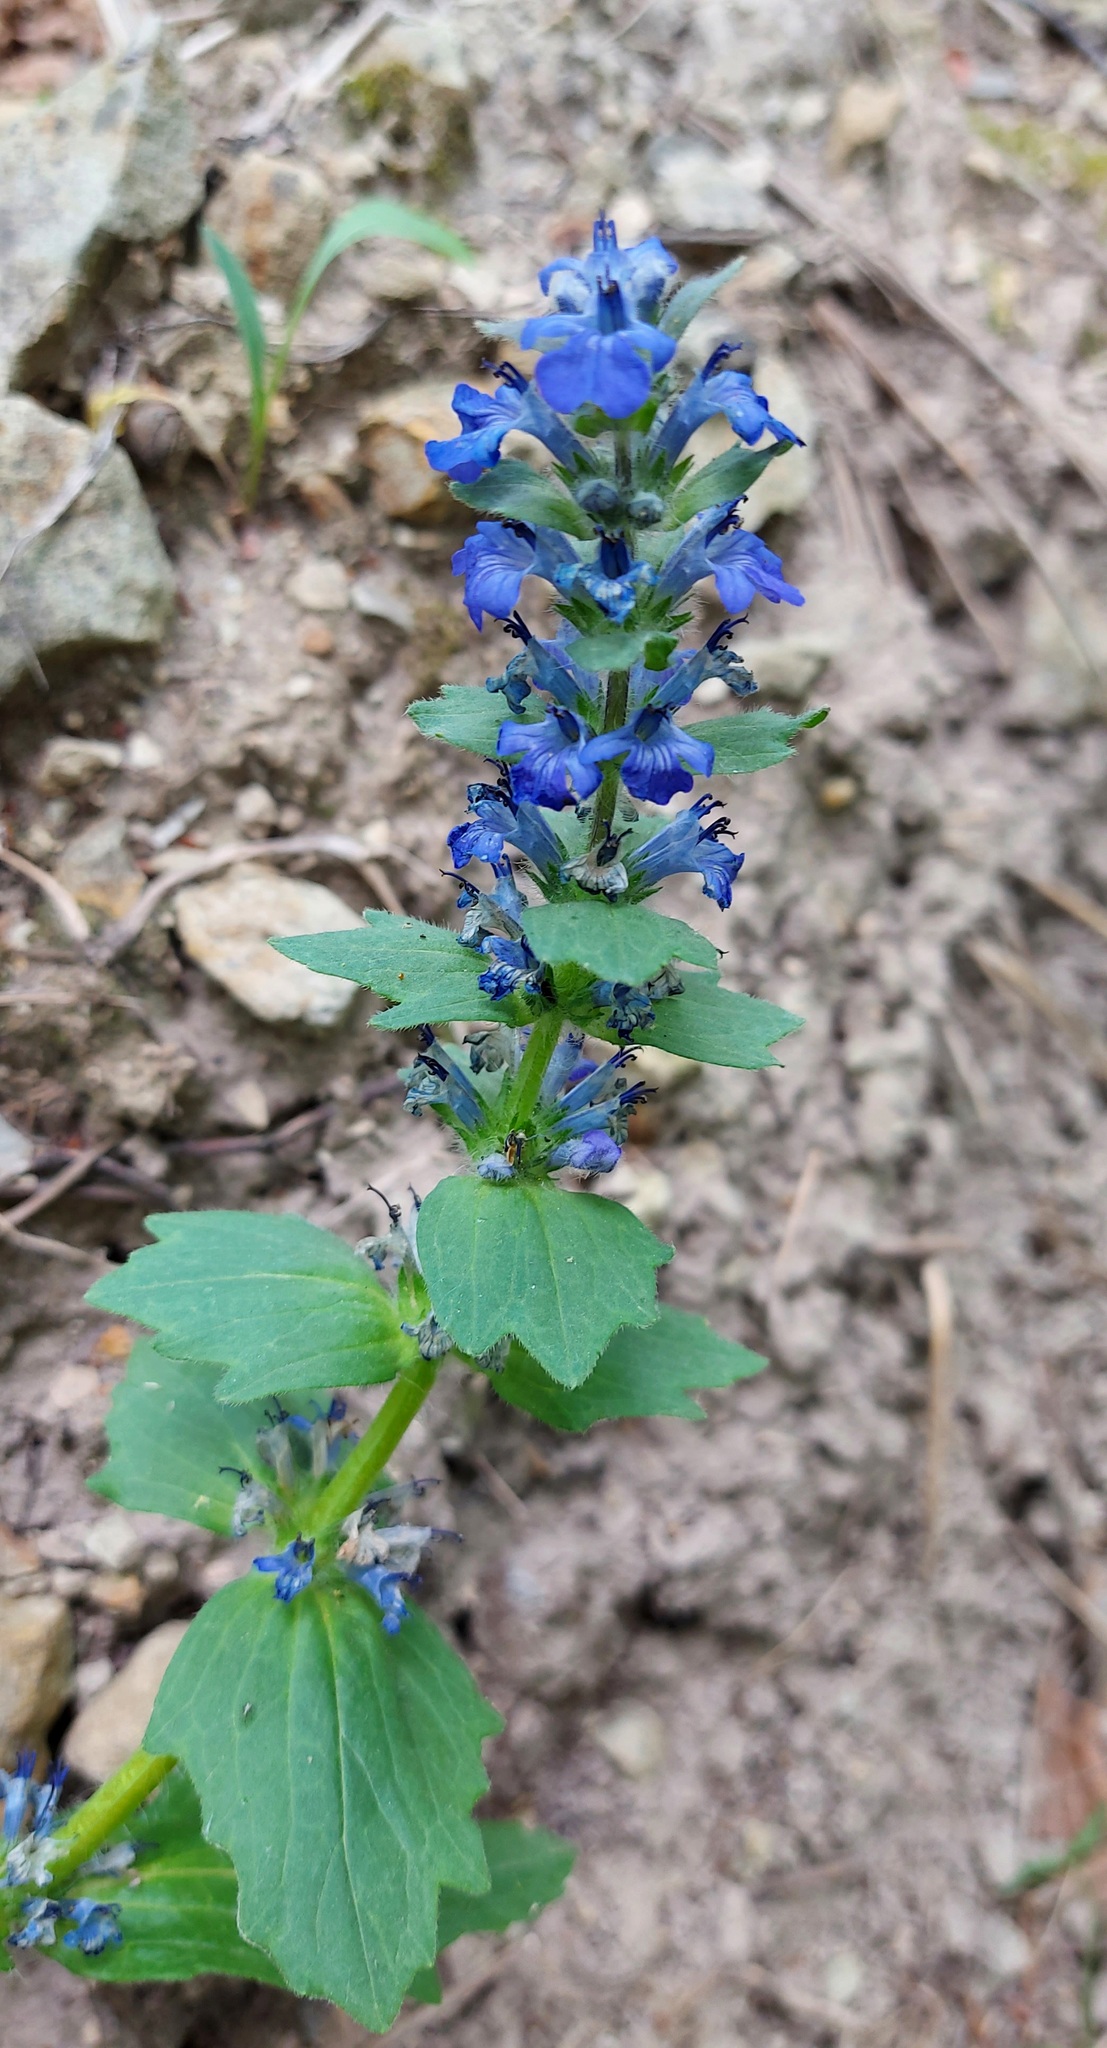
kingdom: Plantae
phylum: Tracheophyta
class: Magnoliopsida
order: Lamiales
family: Lamiaceae
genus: Ajuga
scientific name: Ajuga genevensis
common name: Blue bugle
